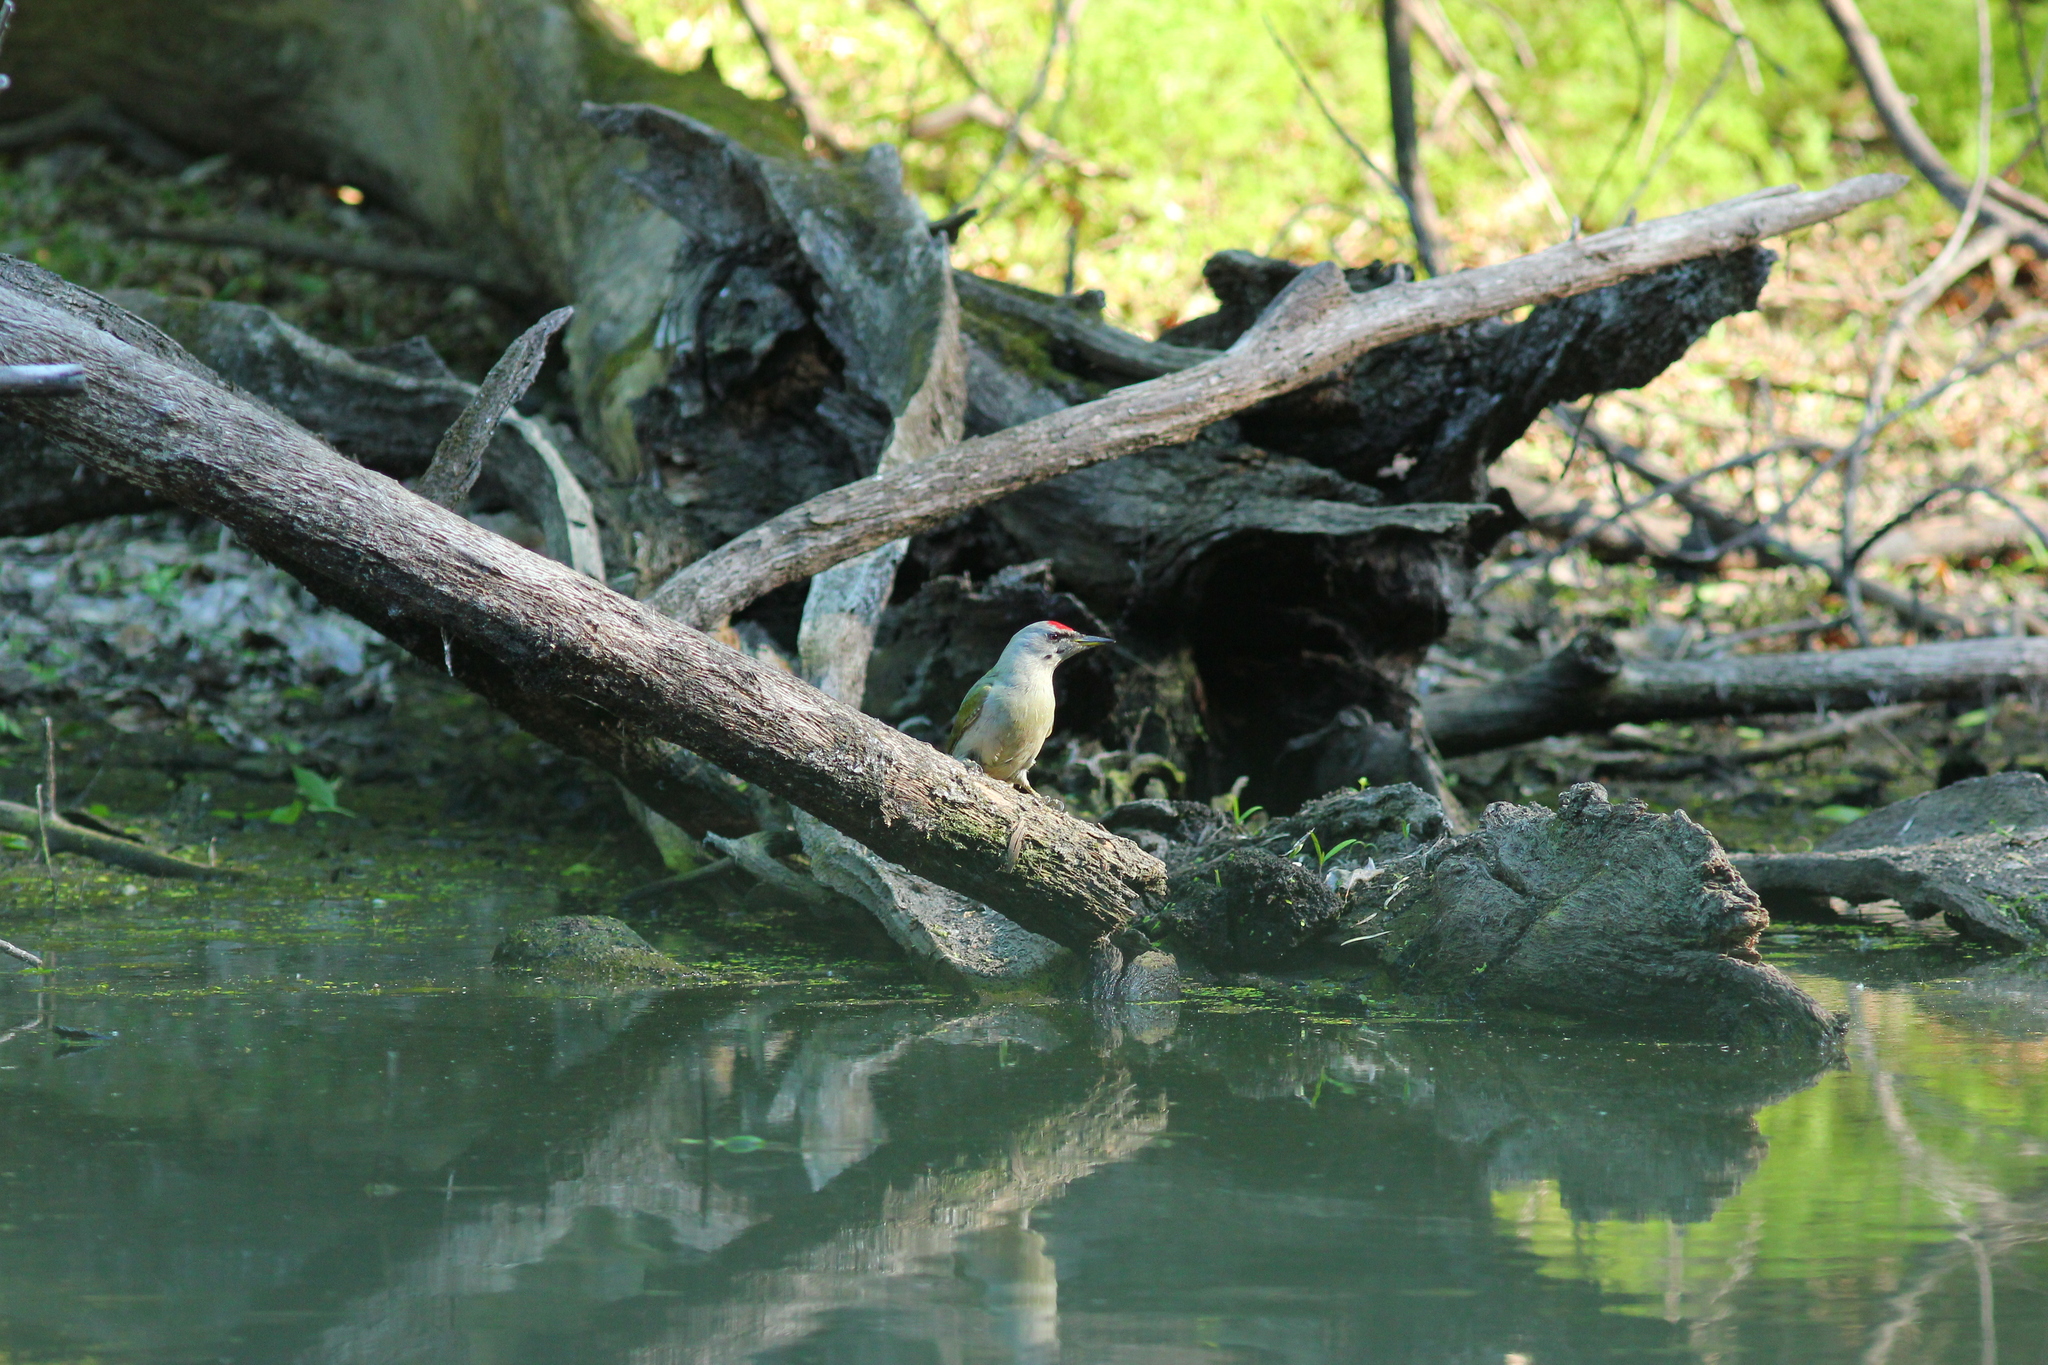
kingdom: Animalia
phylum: Chordata
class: Aves
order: Piciformes
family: Picidae
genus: Picus
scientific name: Picus canus
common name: Grey-headed woodpecker
